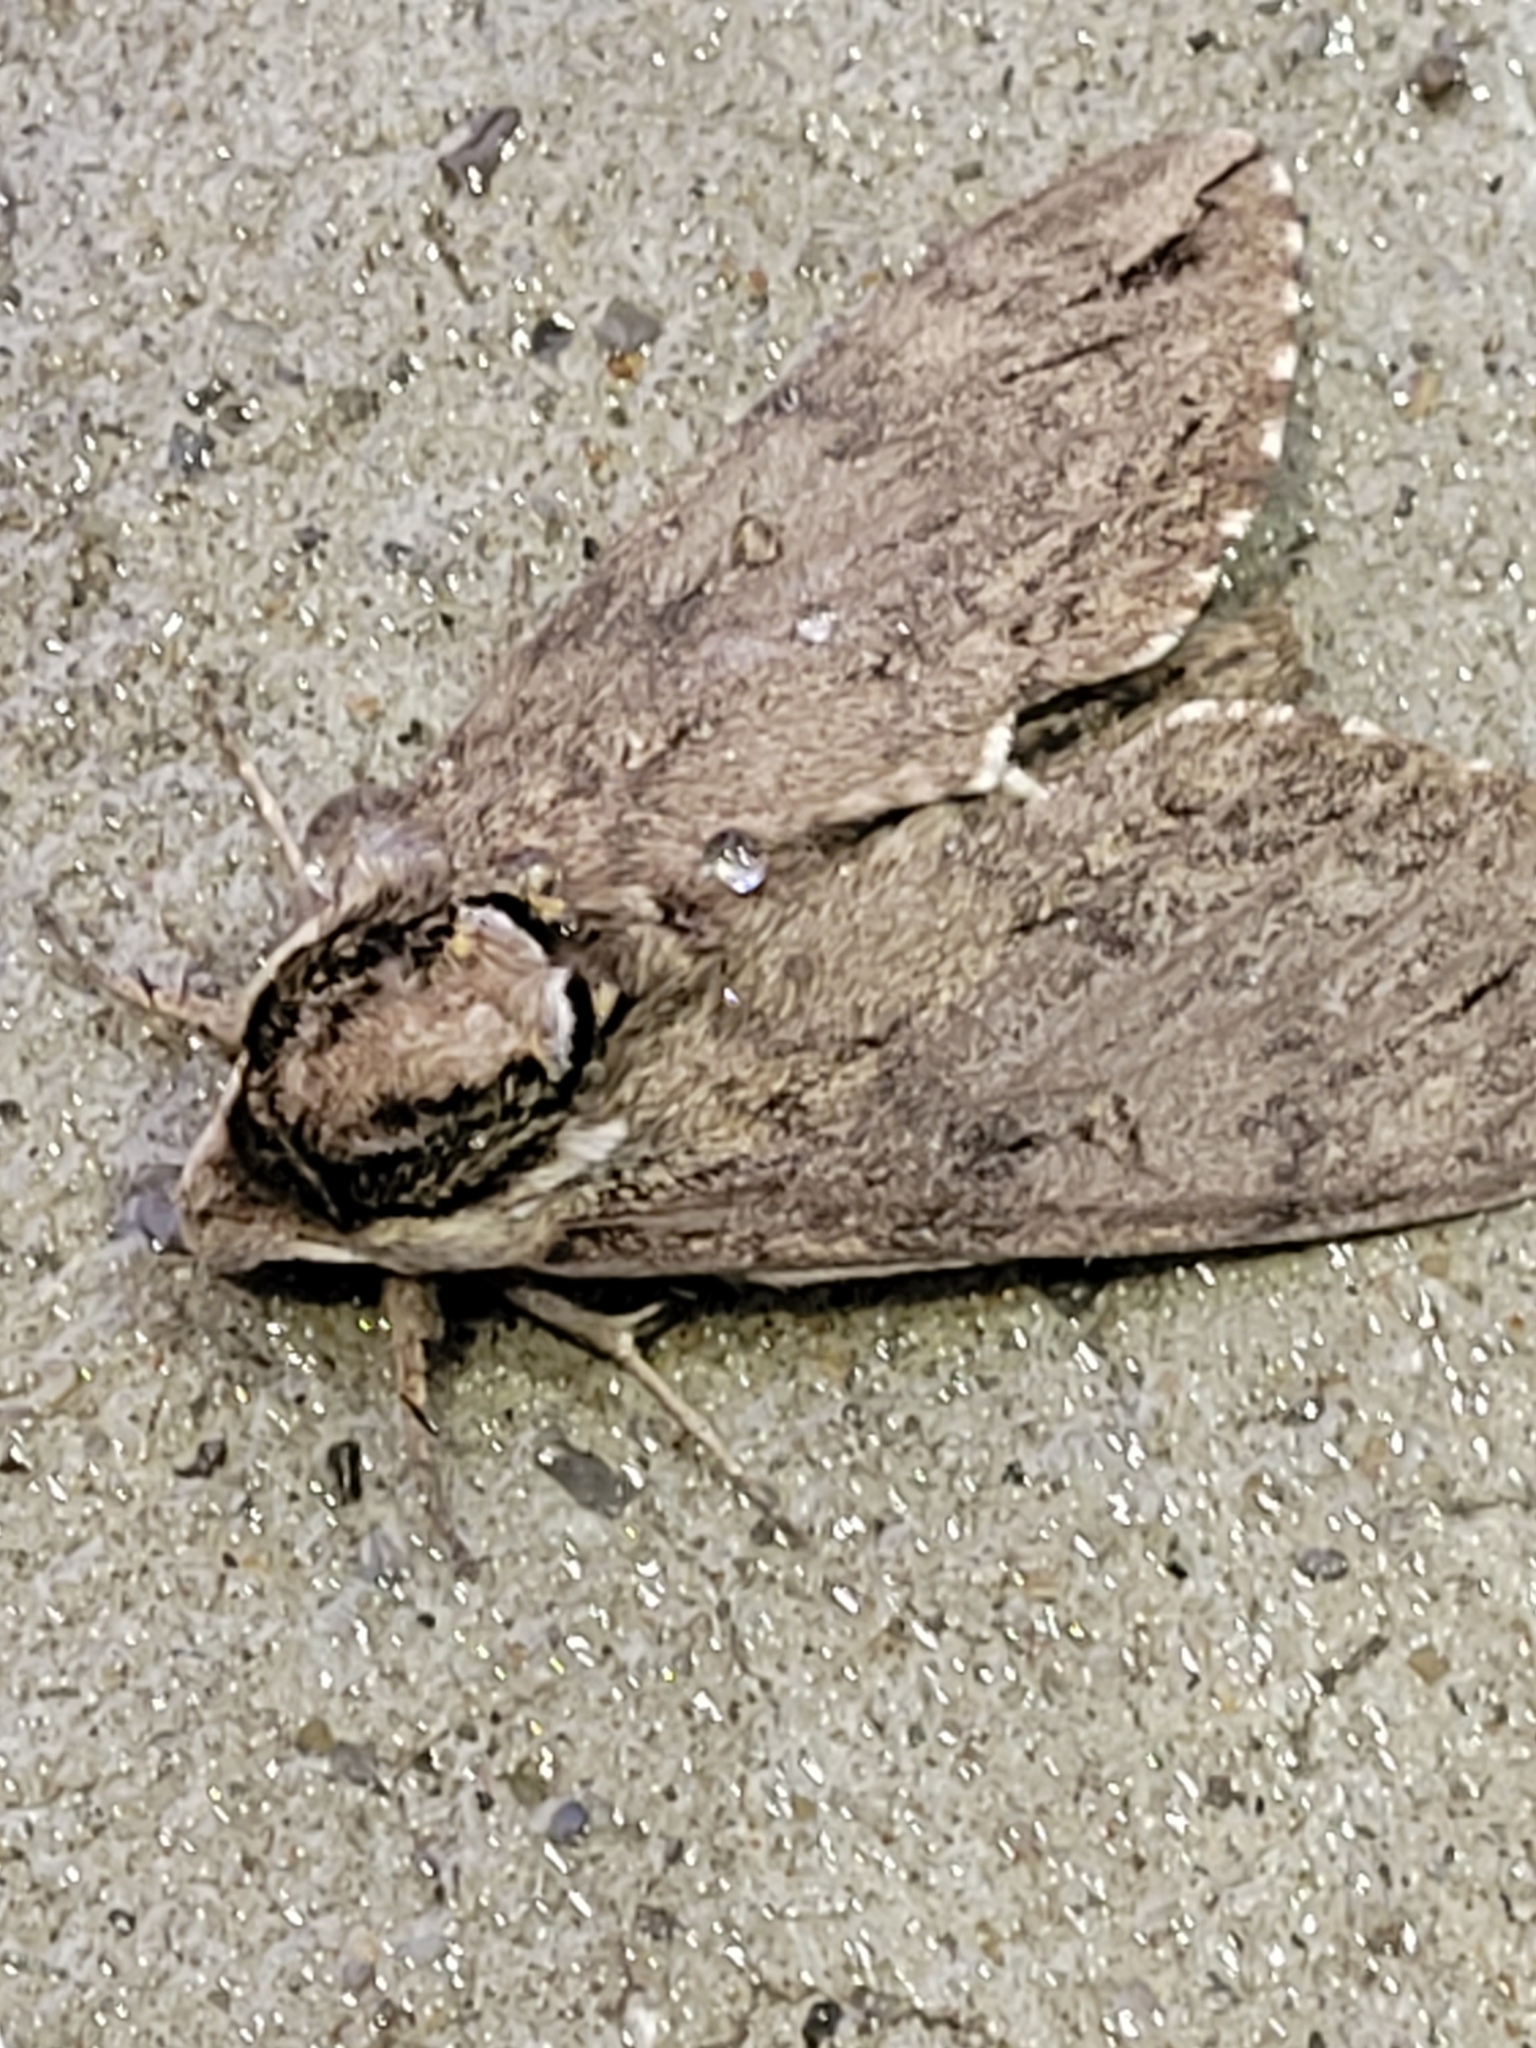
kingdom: Animalia
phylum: Arthropoda
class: Insecta
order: Lepidoptera
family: Sphingidae
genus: Ceratomia
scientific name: Ceratomia catalpae
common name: Catalpa hornworm
